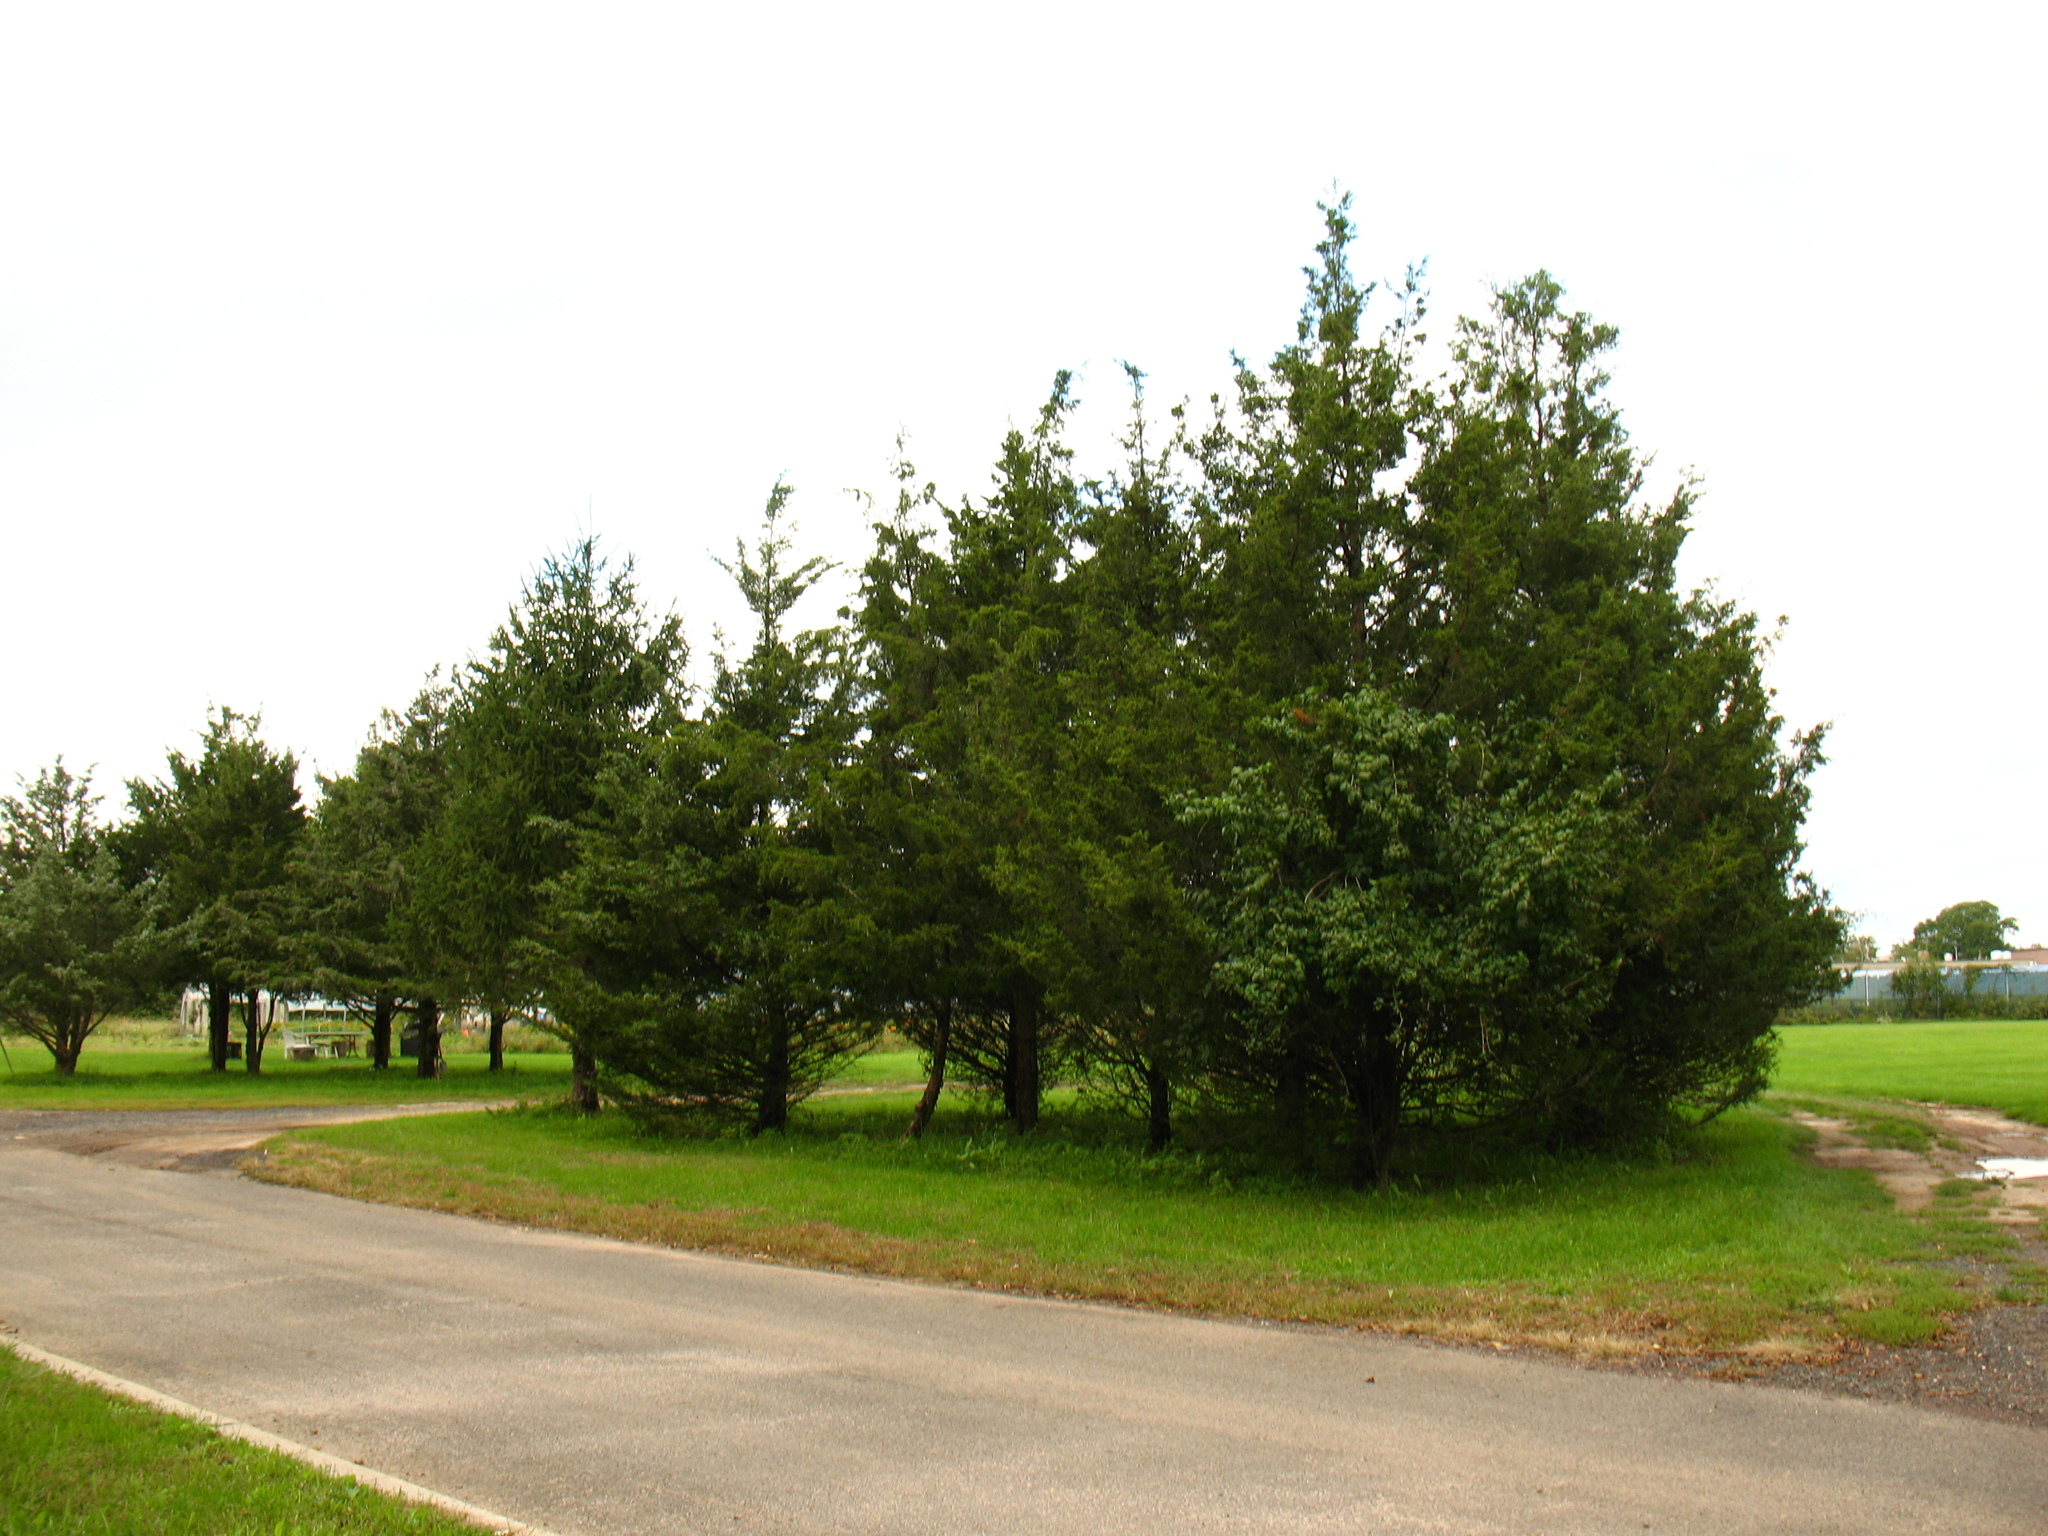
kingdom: Plantae
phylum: Tracheophyta
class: Pinopsida
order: Pinales
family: Cupressaceae
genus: Juniperus
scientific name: Juniperus virginiana
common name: Red juniper
